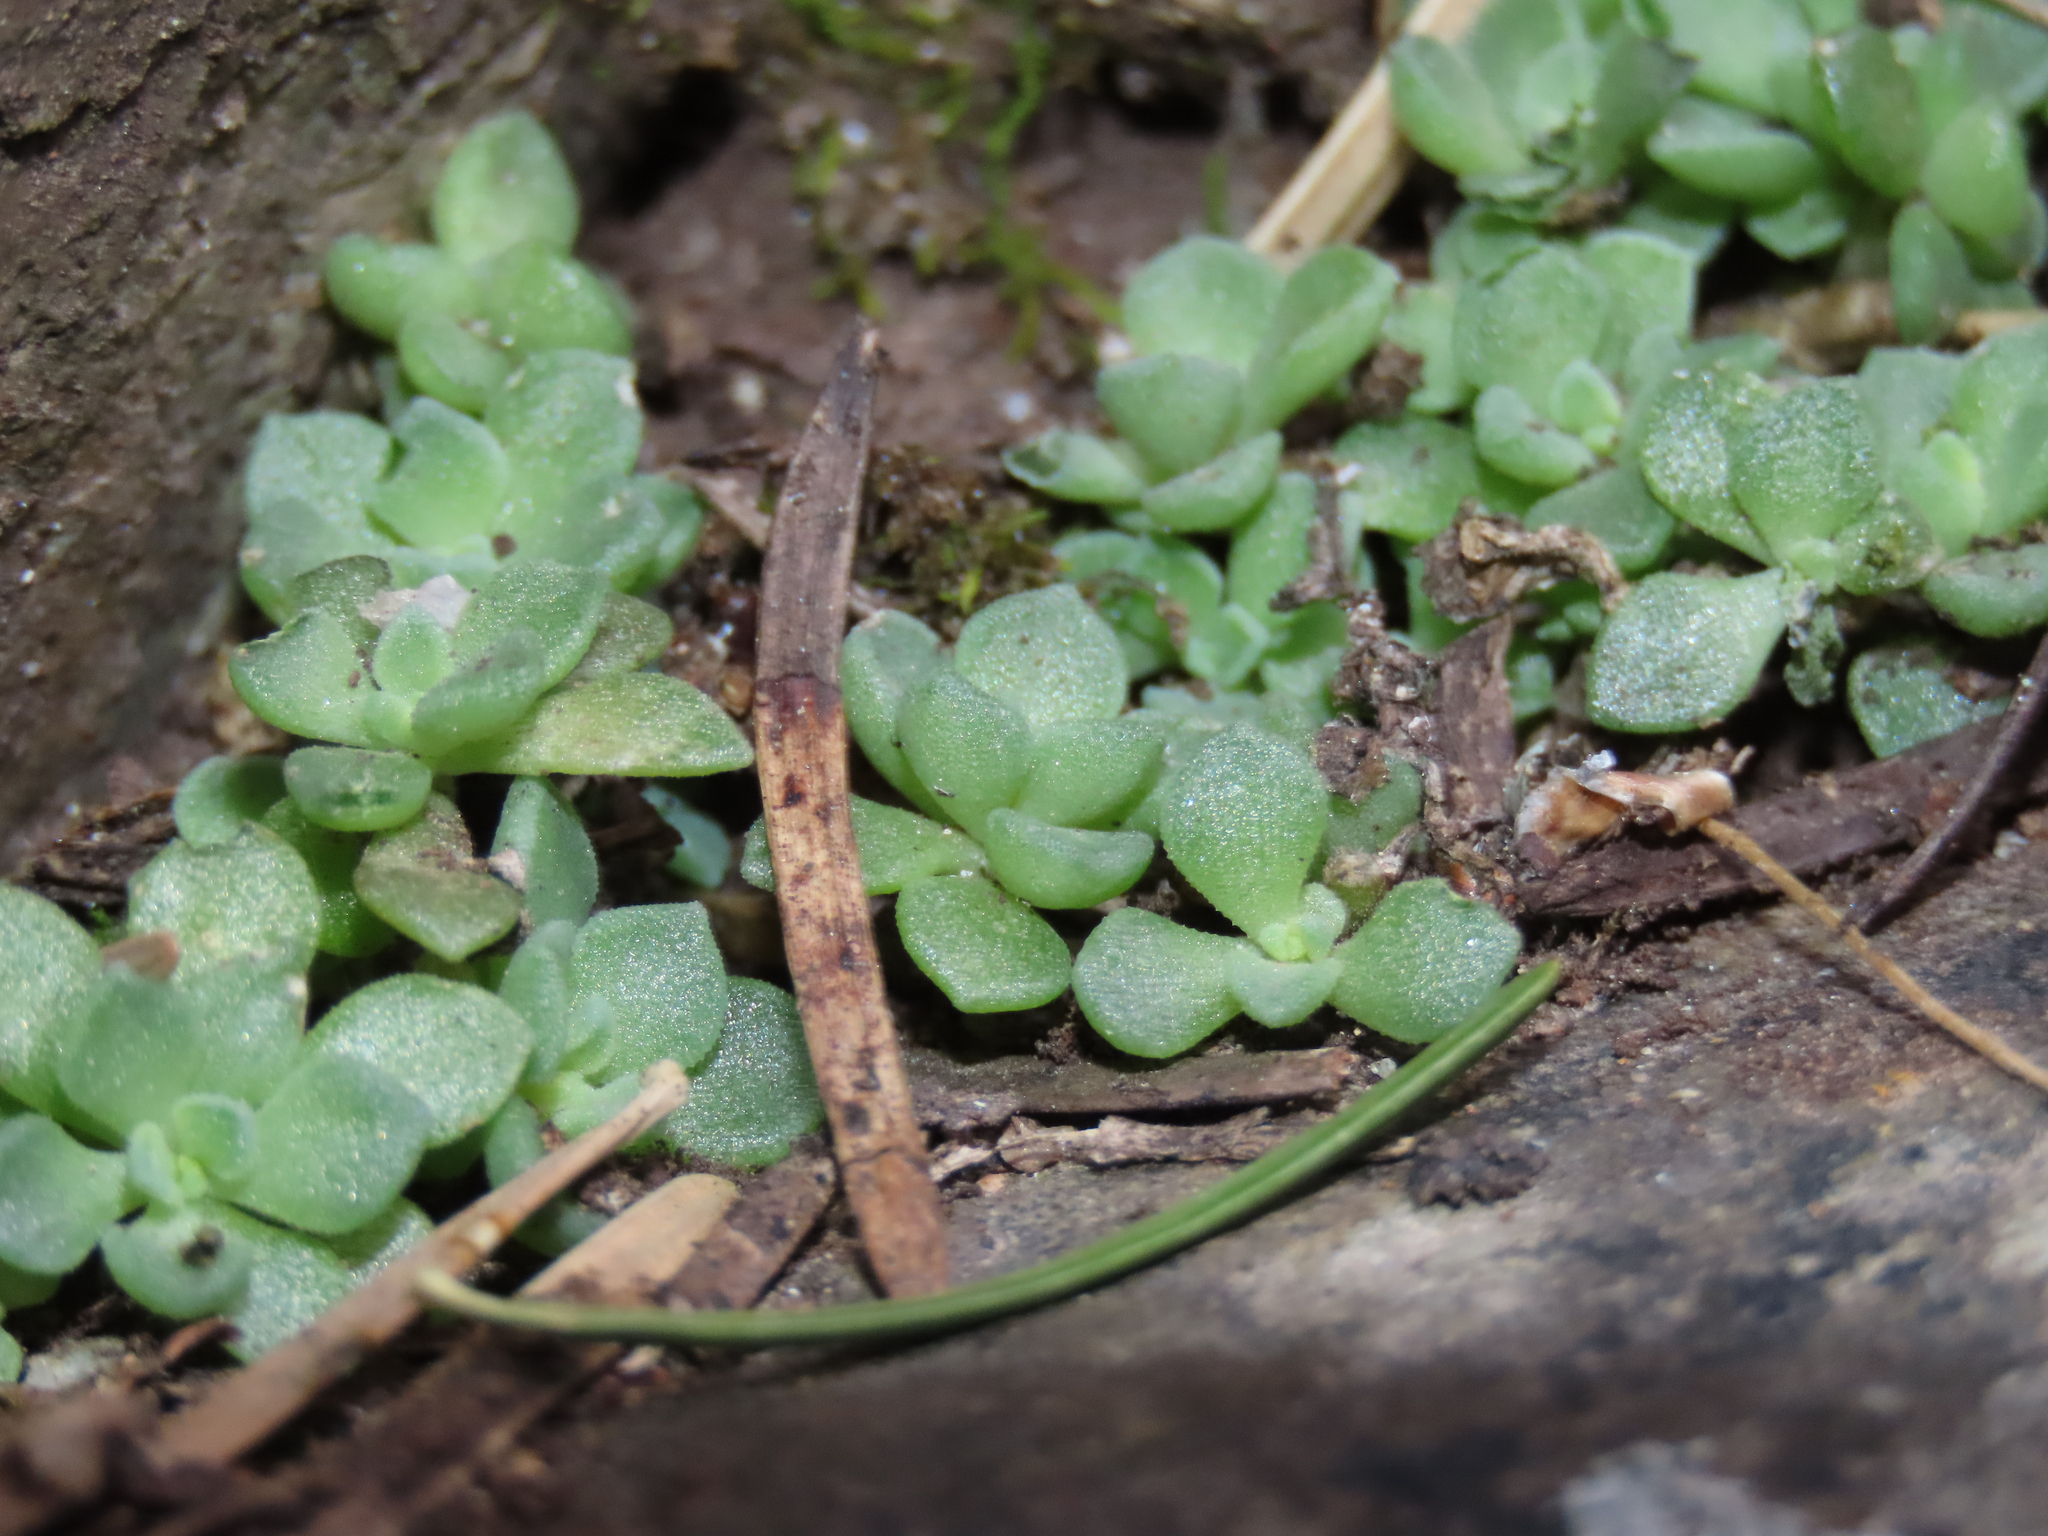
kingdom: Plantae
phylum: Tracheophyta
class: Magnoliopsida
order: Saxifragales
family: Crassulaceae
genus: Sedum
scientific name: Sedum cockerellii
